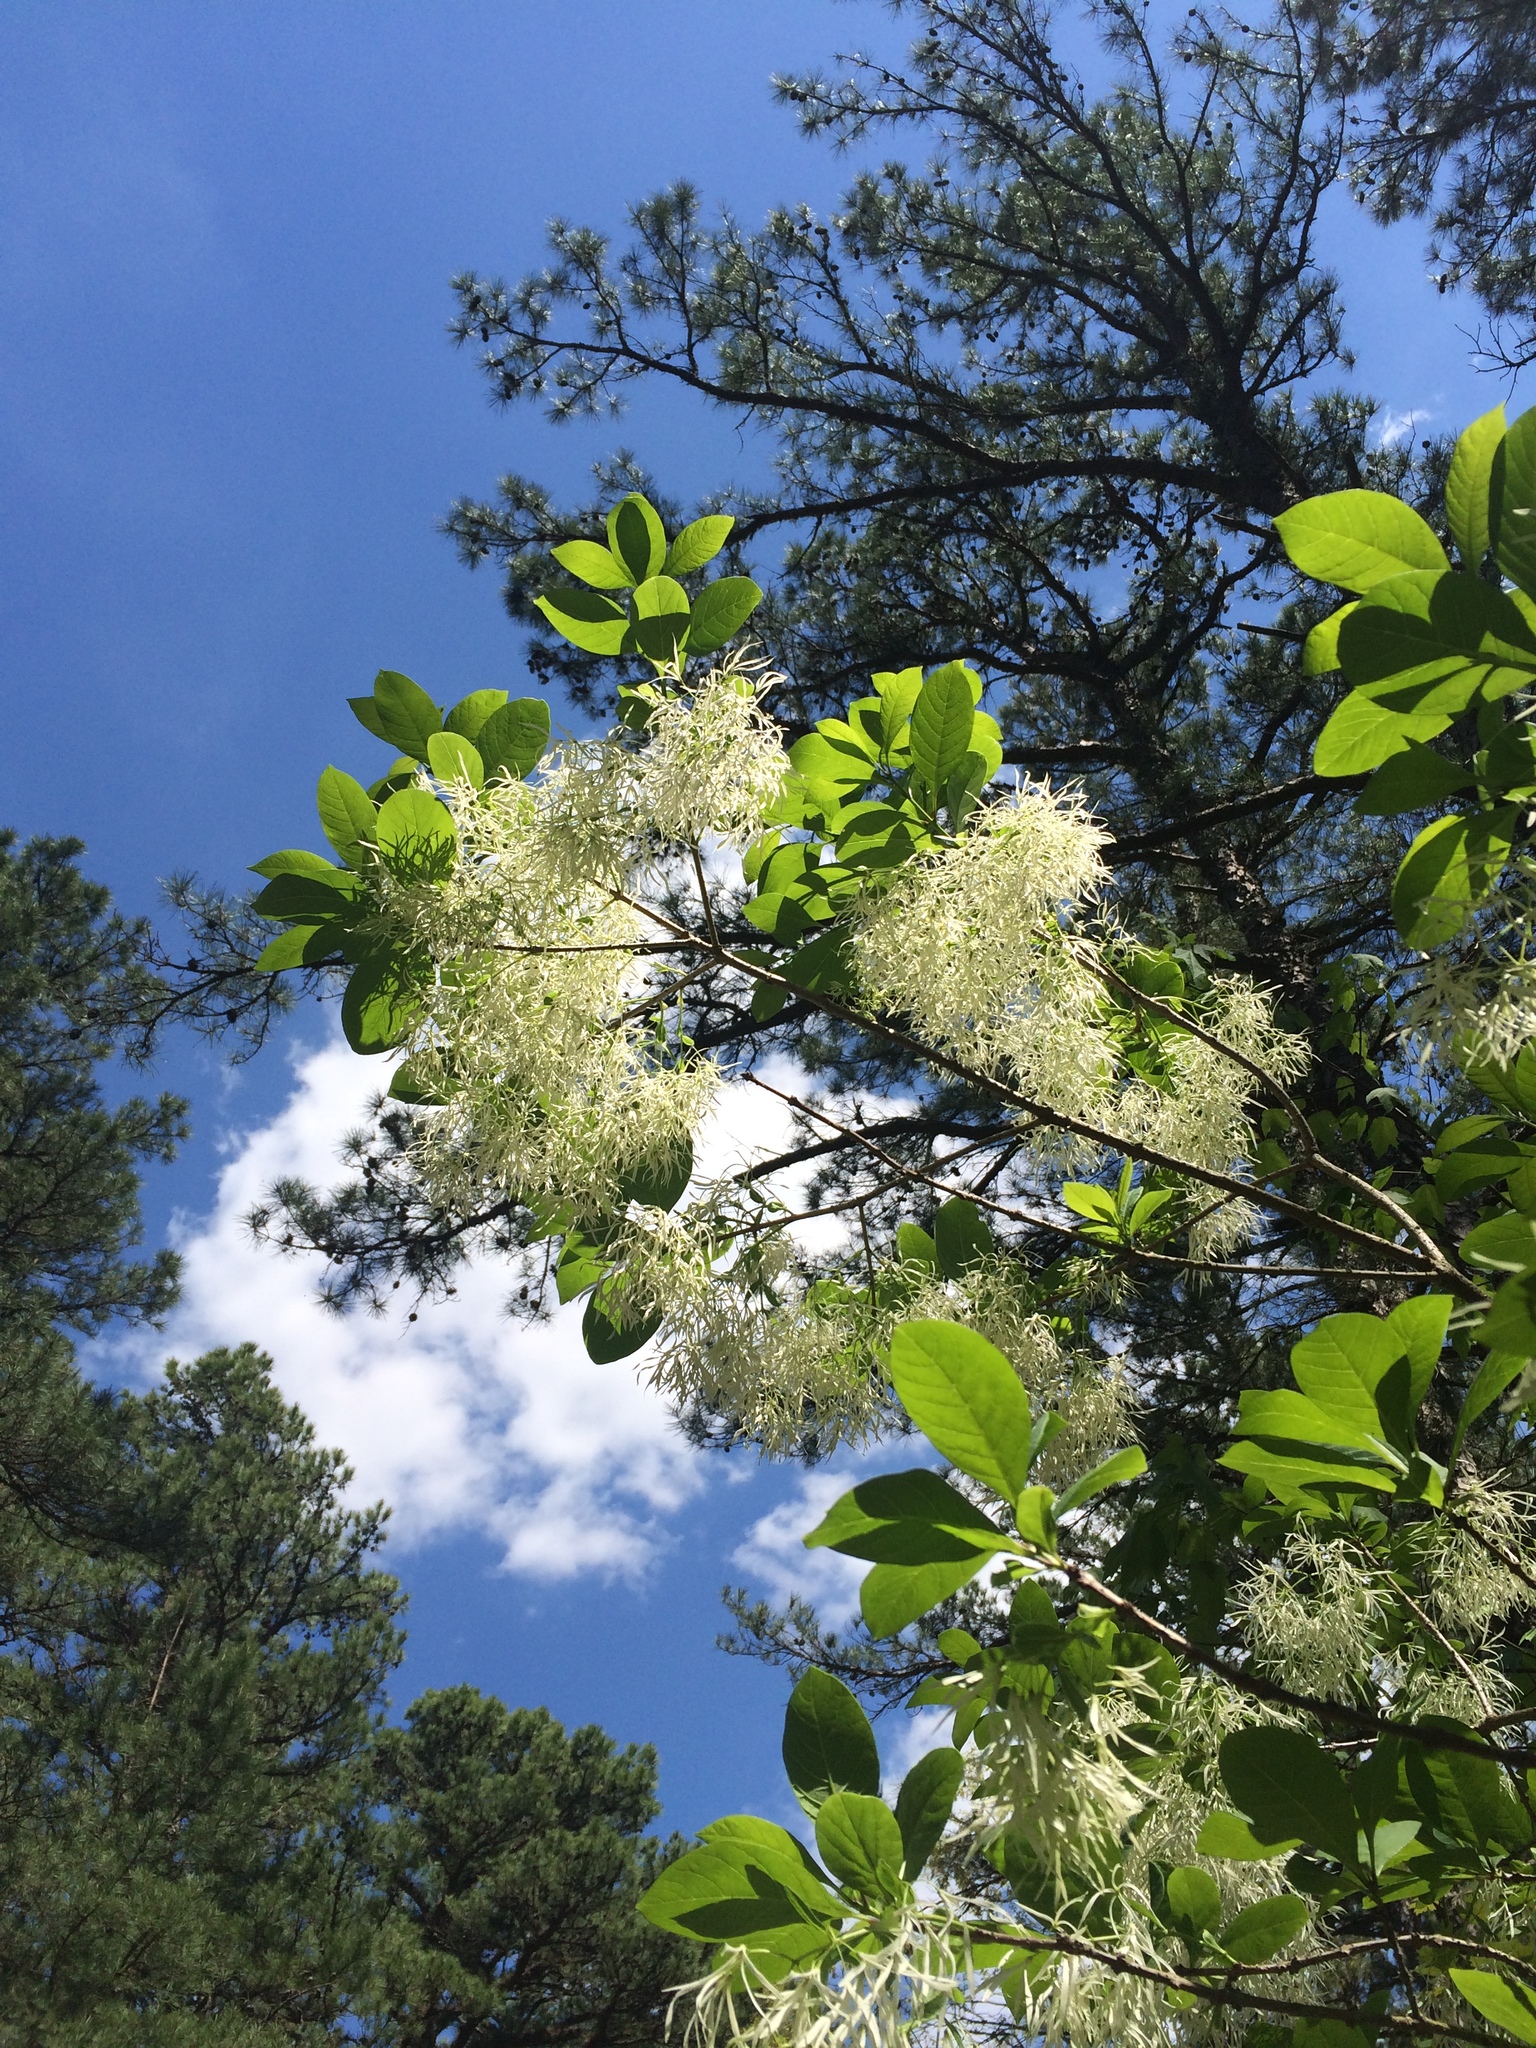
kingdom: Plantae
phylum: Tracheophyta
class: Magnoliopsida
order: Lamiales
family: Oleaceae
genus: Chionanthus
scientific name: Chionanthus virginicus
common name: American fringetree
